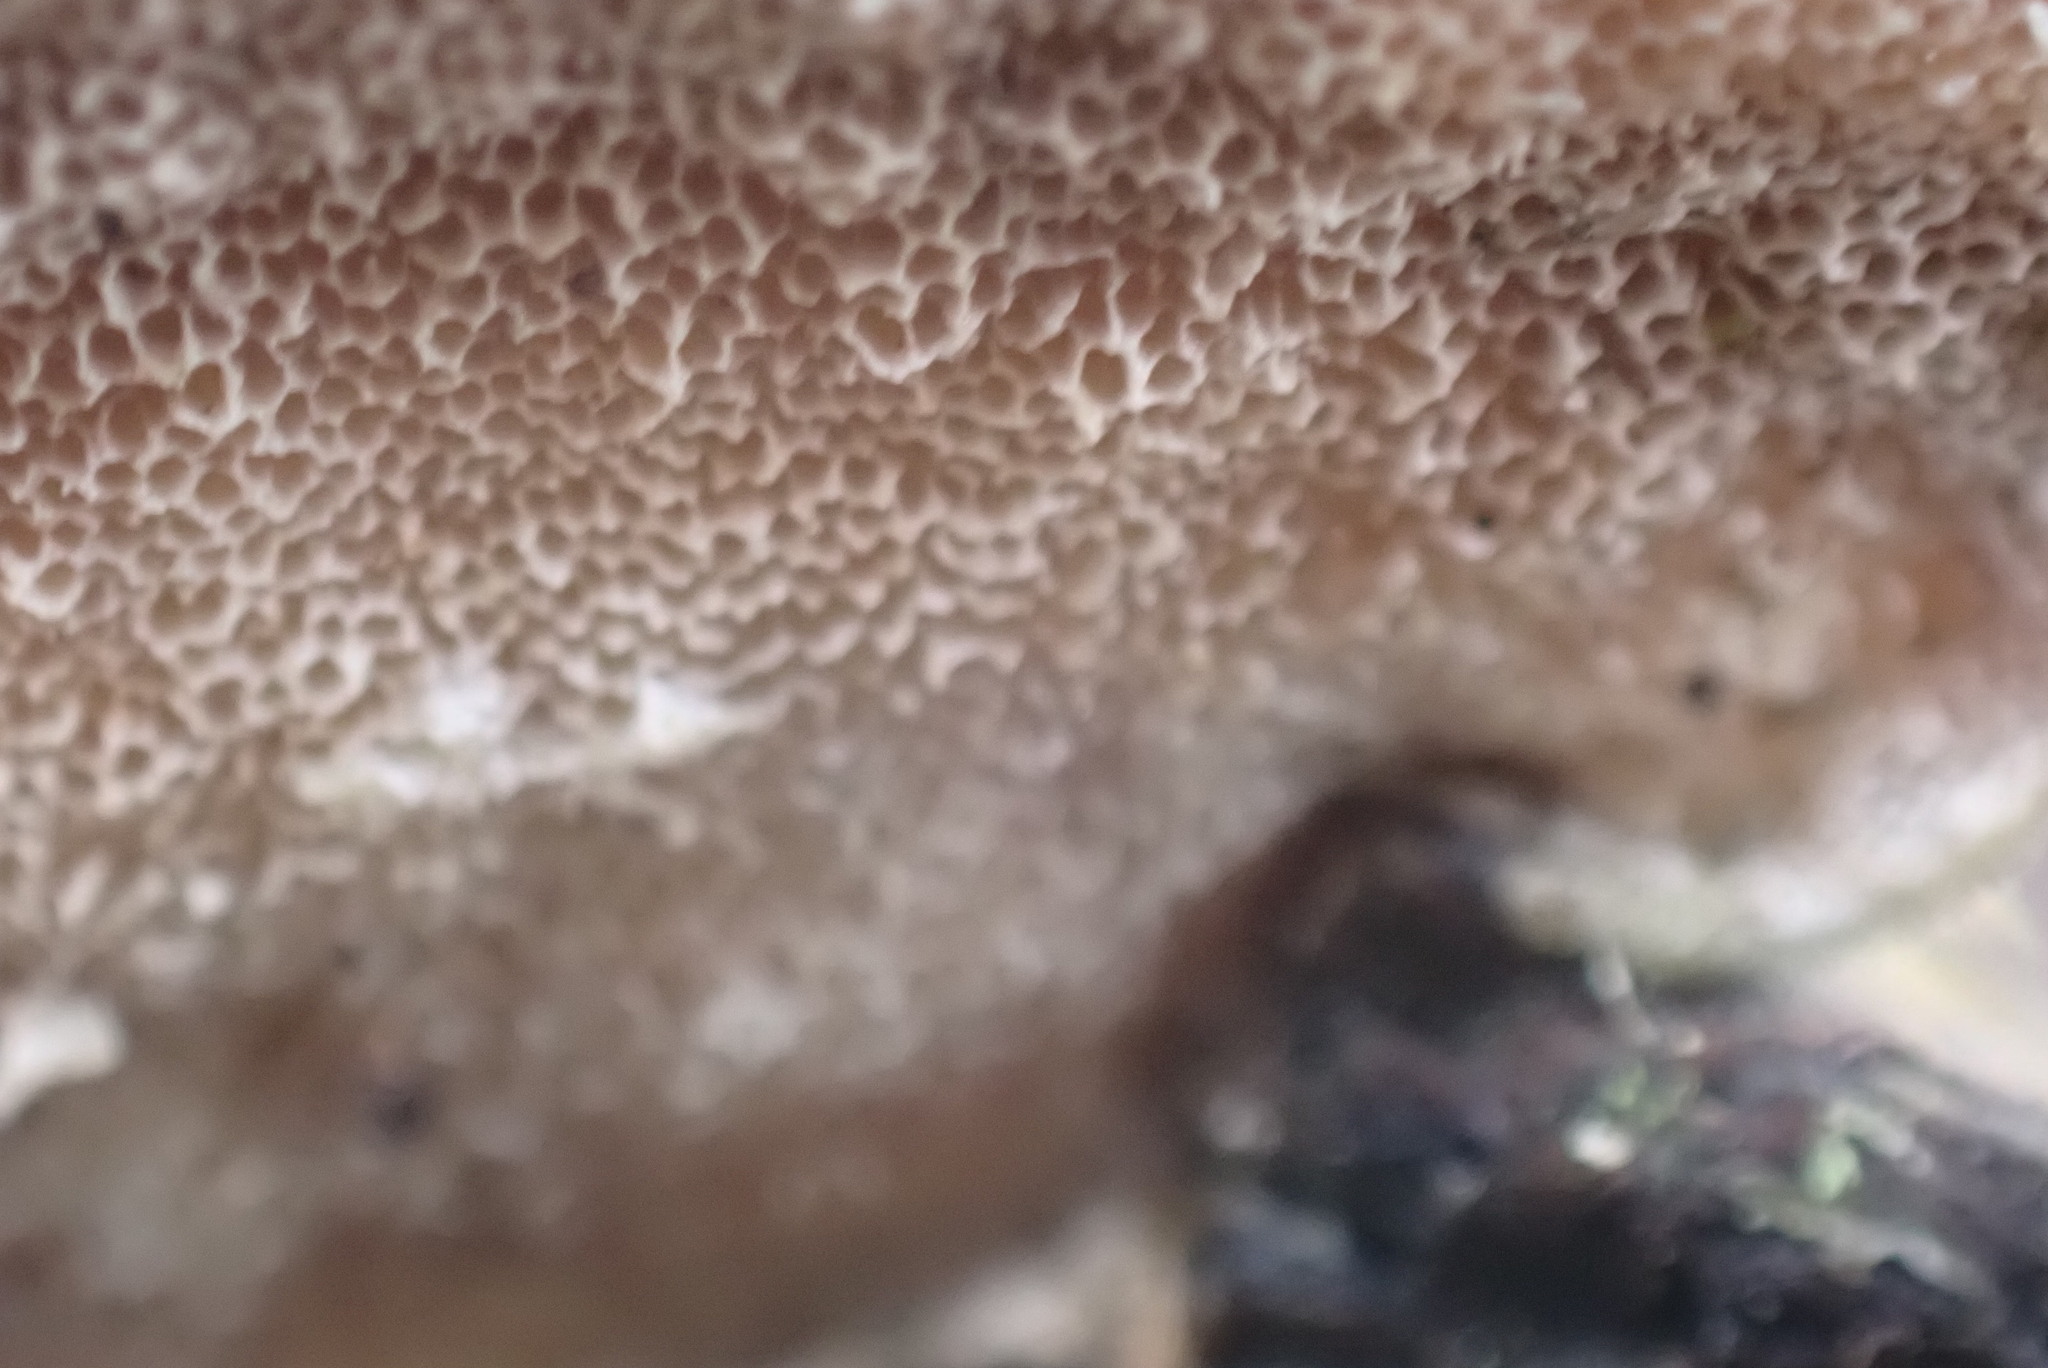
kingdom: Fungi
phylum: Basidiomycota
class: Agaricomycetes
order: Polyporales
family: Polyporaceae
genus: Trametes
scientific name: Trametes hirsuta
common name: Hairy bracket
